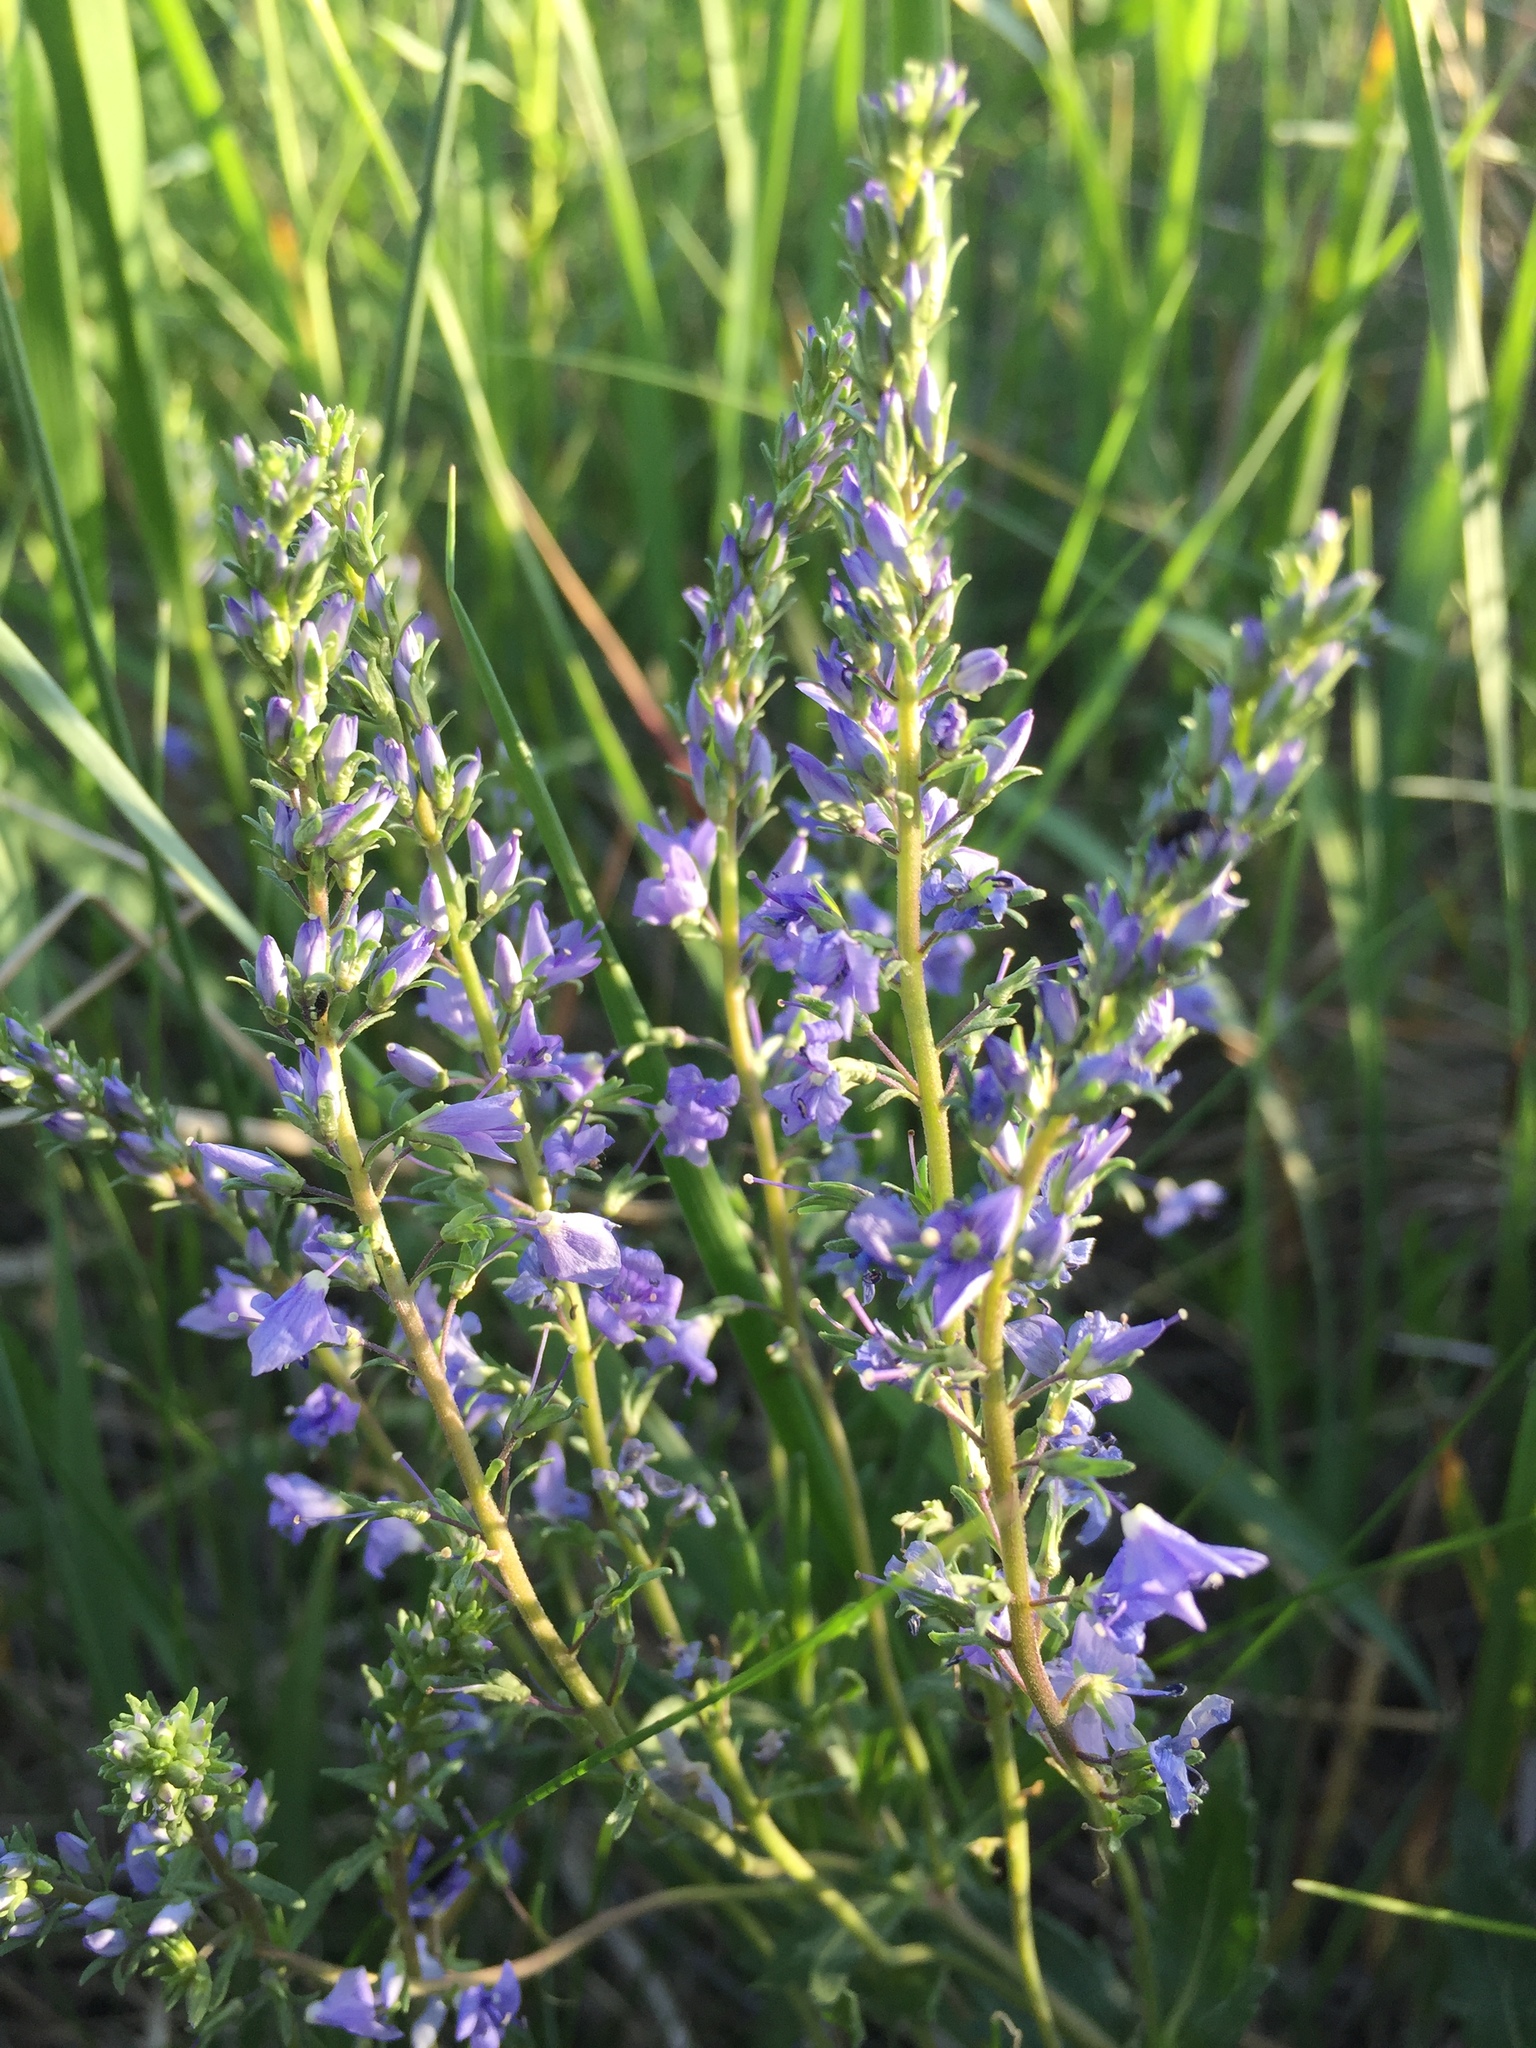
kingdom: Plantae
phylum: Tracheophyta
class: Magnoliopsida
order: Lamiales
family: Plantaginaceae
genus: Veronica
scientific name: Veronica austriaca
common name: Large speedwell
